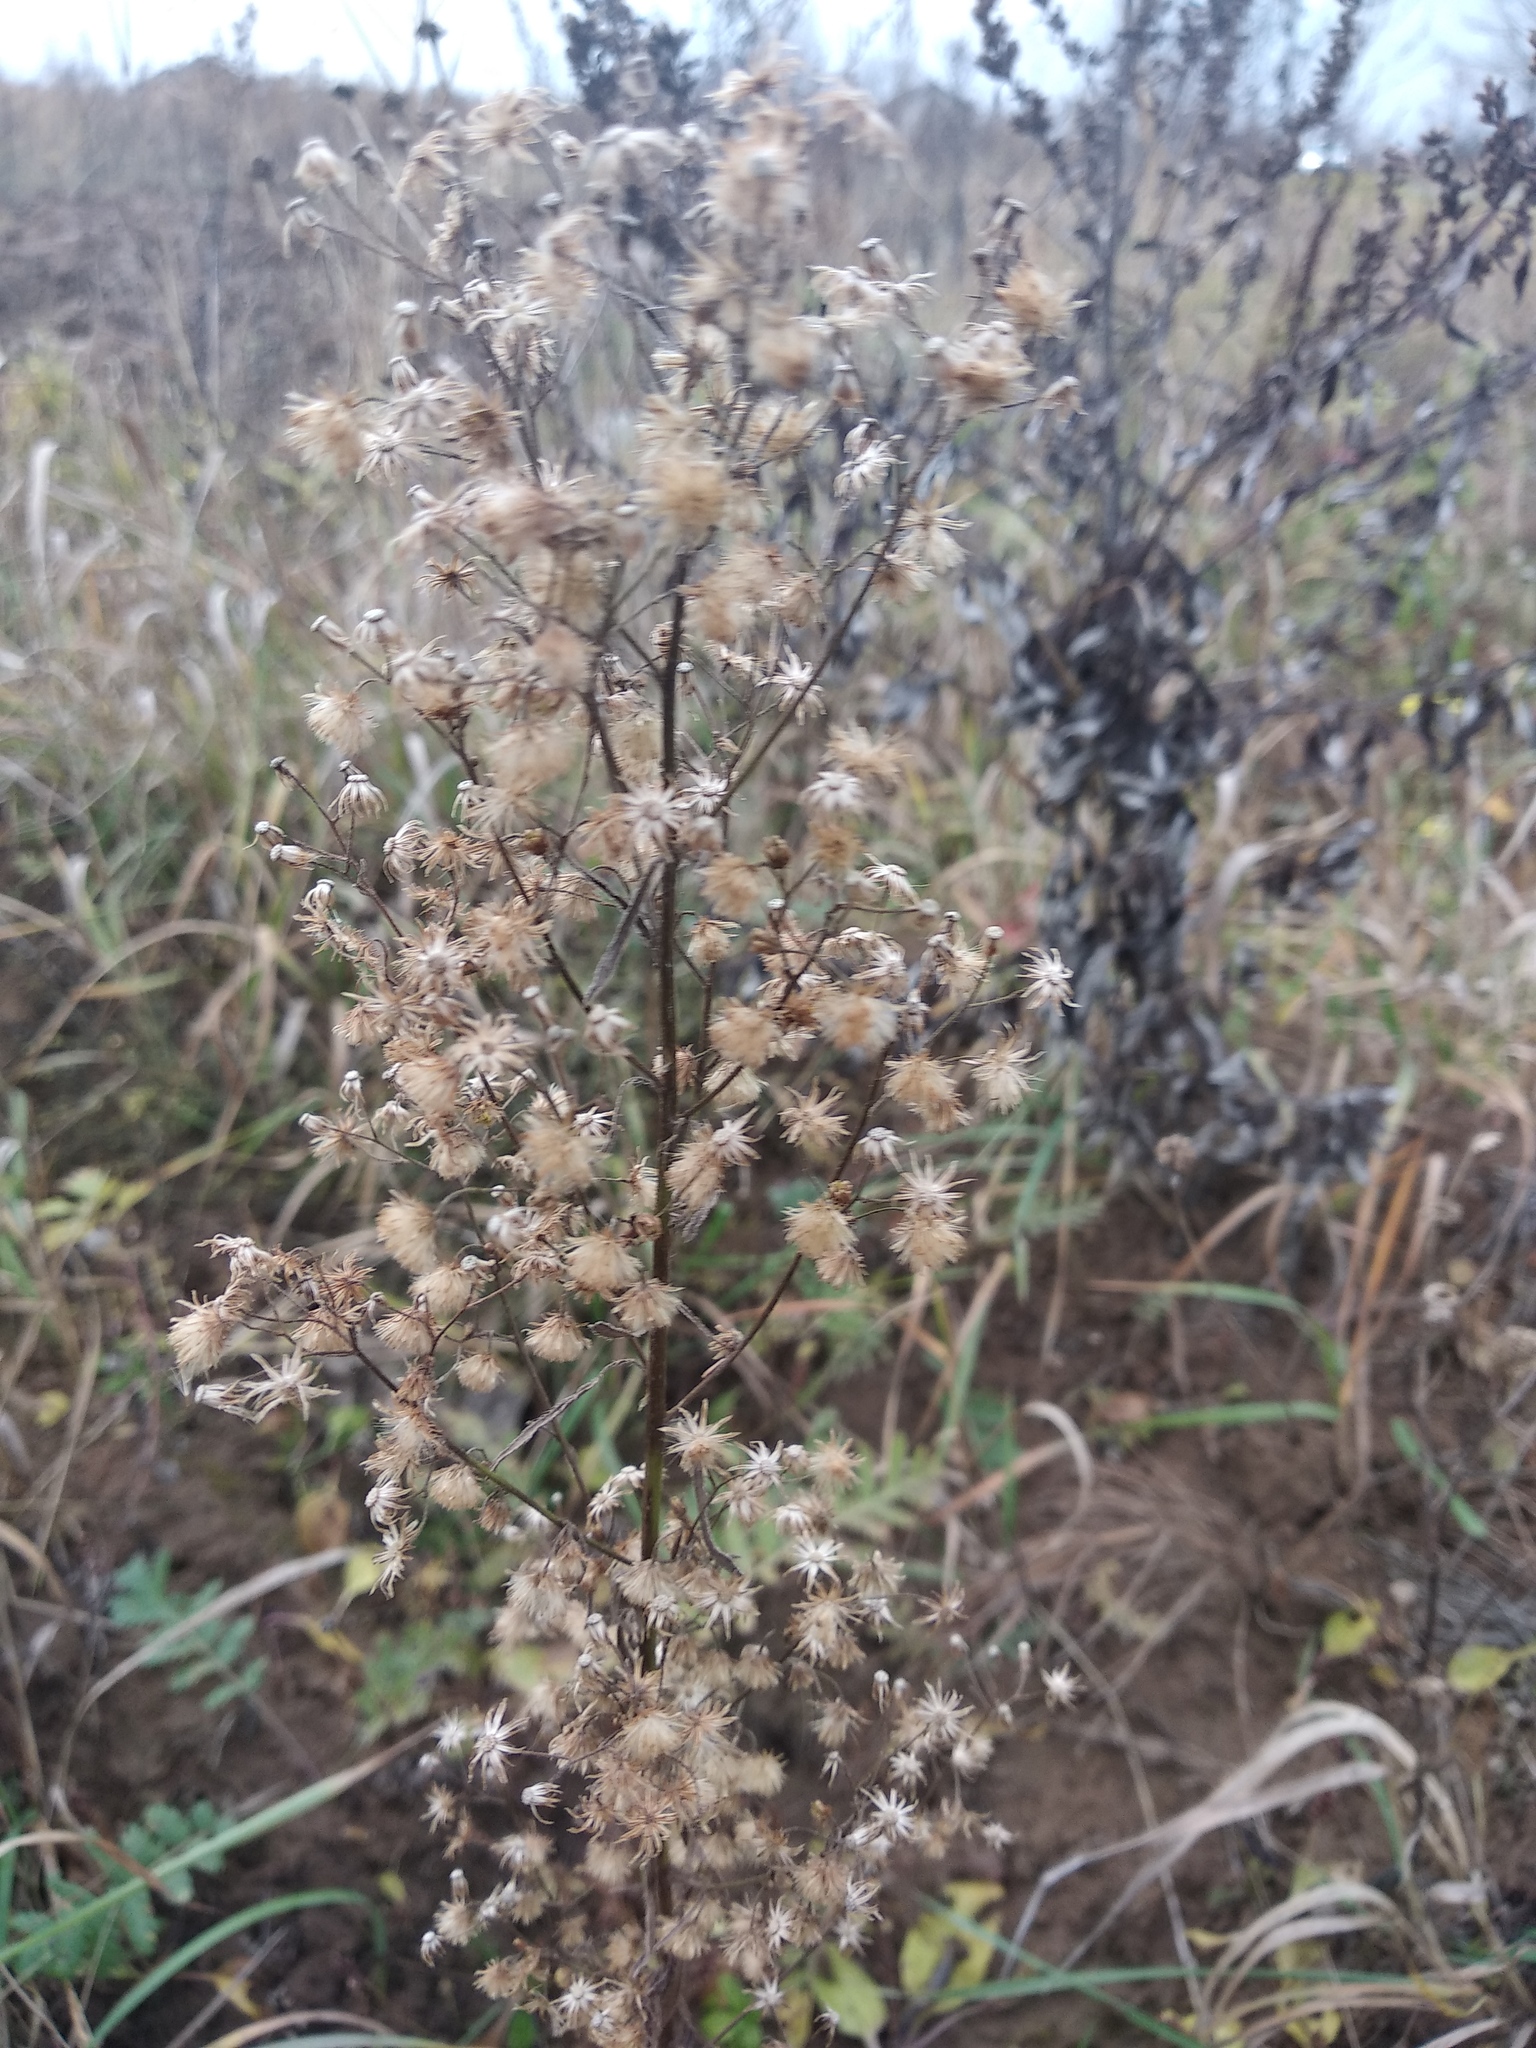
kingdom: Plantae
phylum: Tracheophyta
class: Magnoliopsida
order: Asterales
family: Asteraceae
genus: Erigeron
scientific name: Erigeron canadensis
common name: Canadian fleabane
